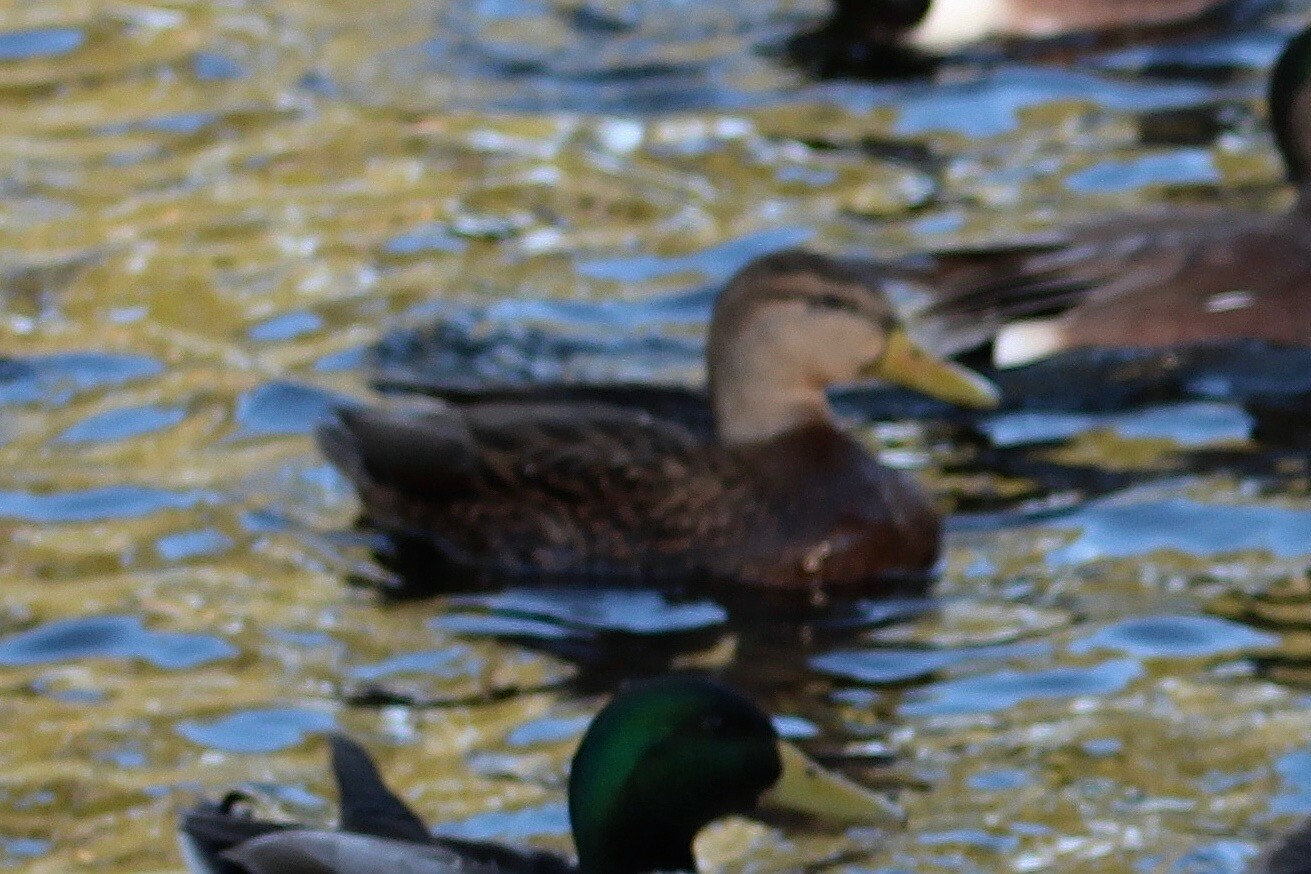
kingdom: Animalia
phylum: Chordata
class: Aves
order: Anseriformes
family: Anatidae
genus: Anas
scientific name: Anas diazi
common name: Mexican duck
